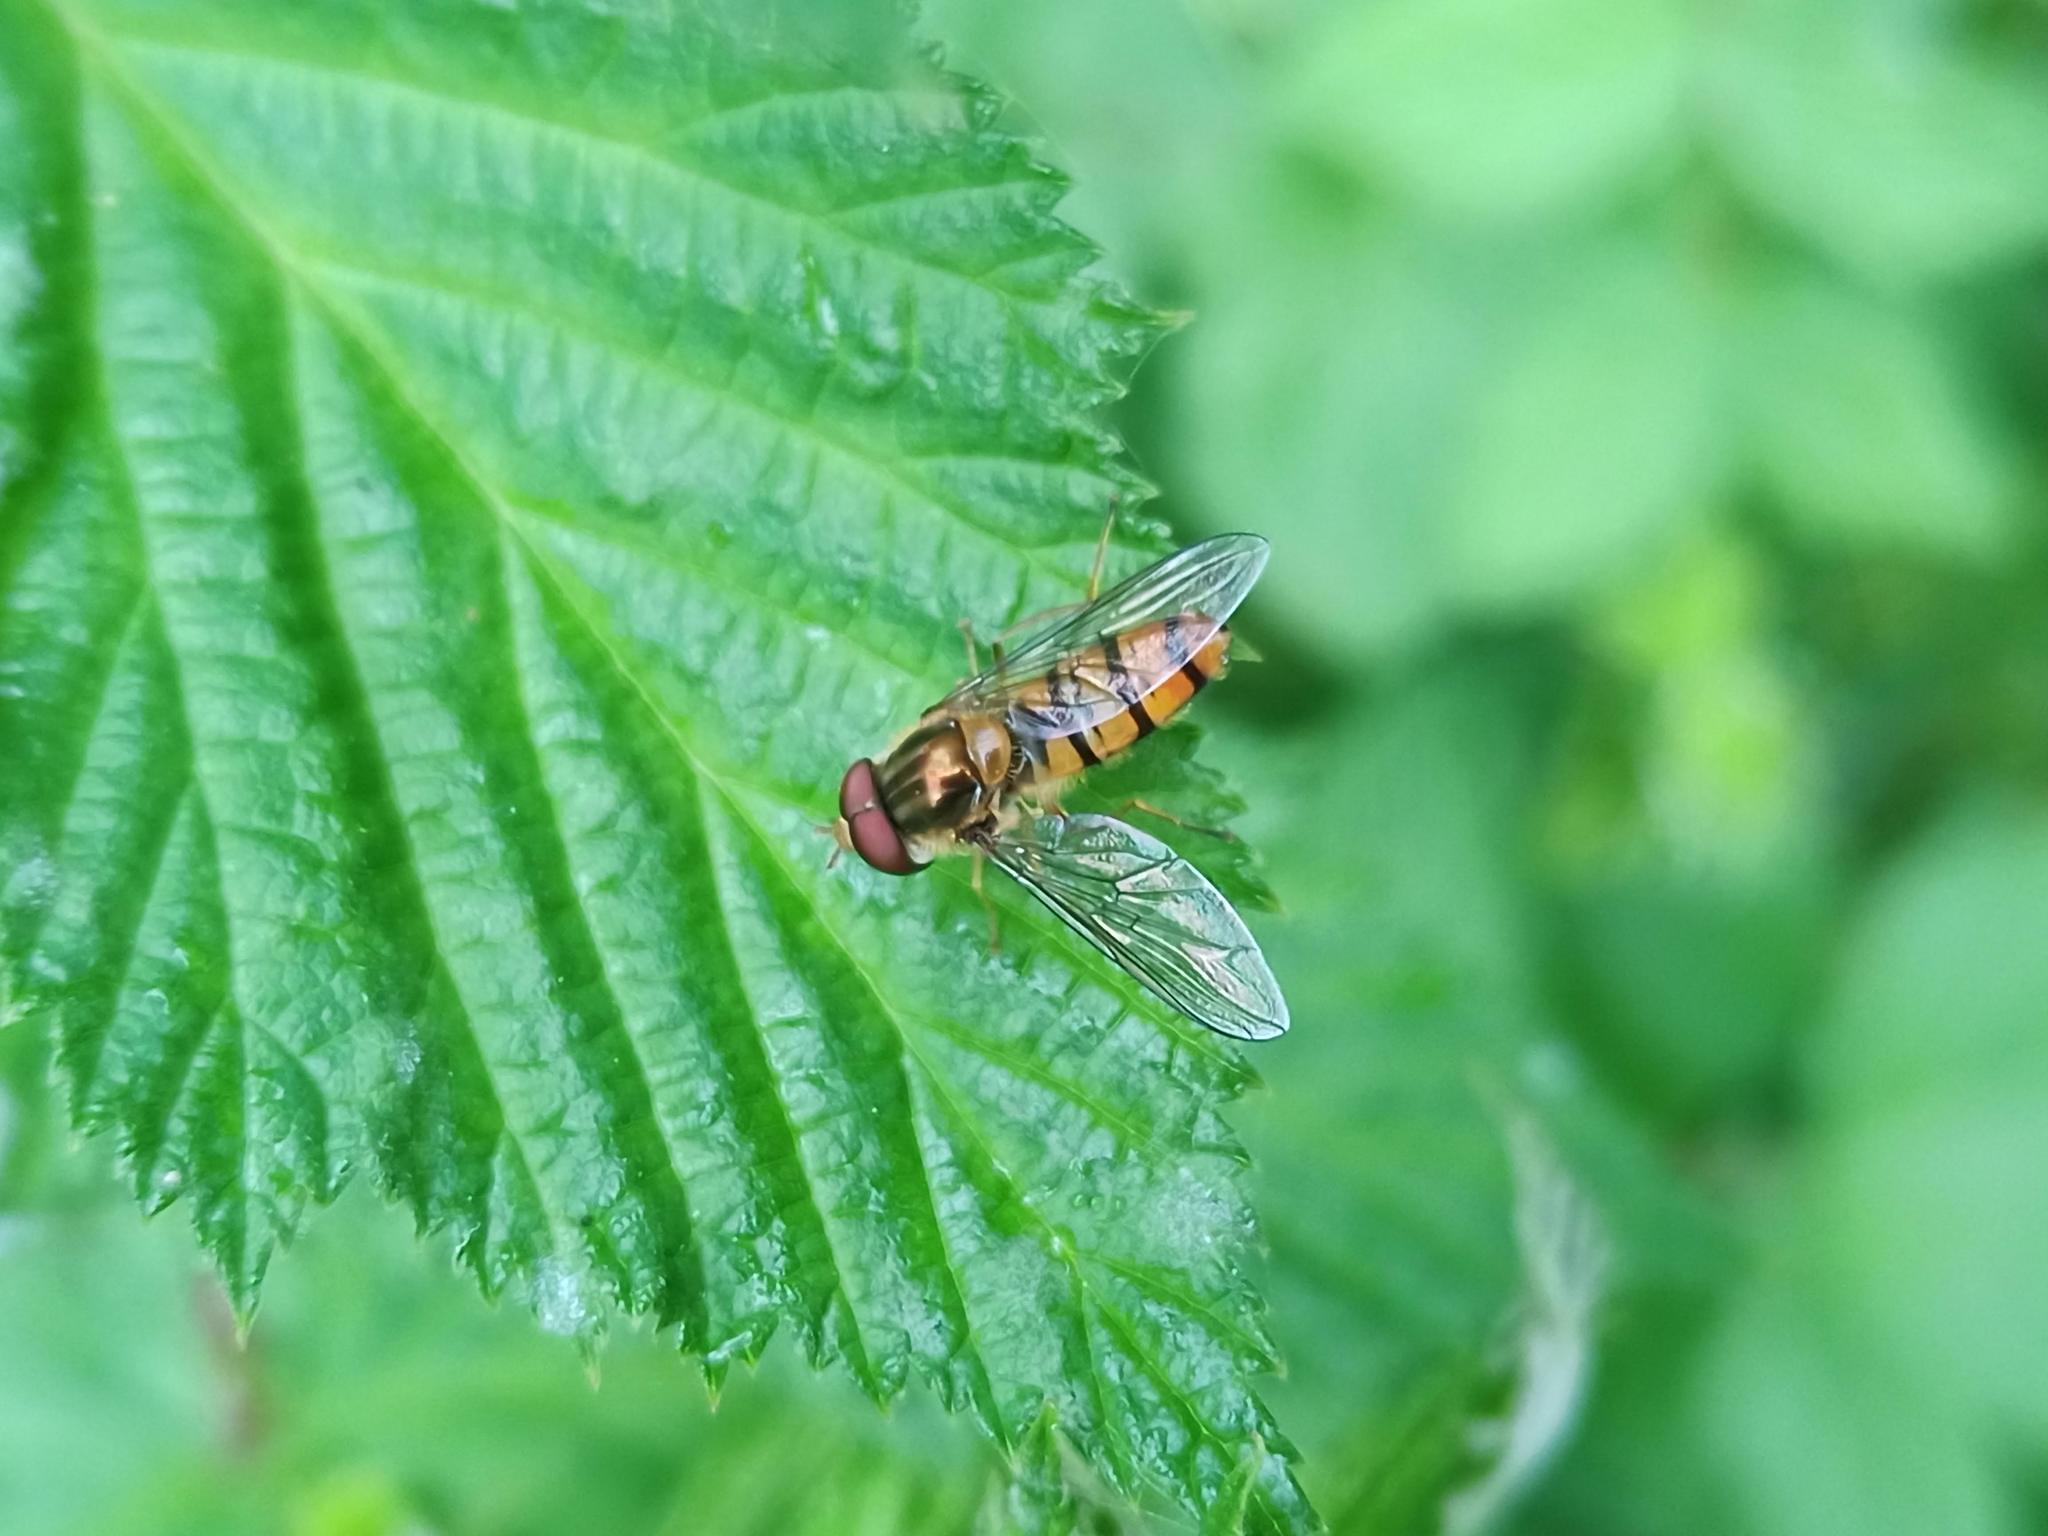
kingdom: Animalia
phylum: Arthropoda
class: Insecta
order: Diptera
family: Syrphidae
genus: Episyrphus
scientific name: Episyrphus balteatus
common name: Marmalade hoverfly
